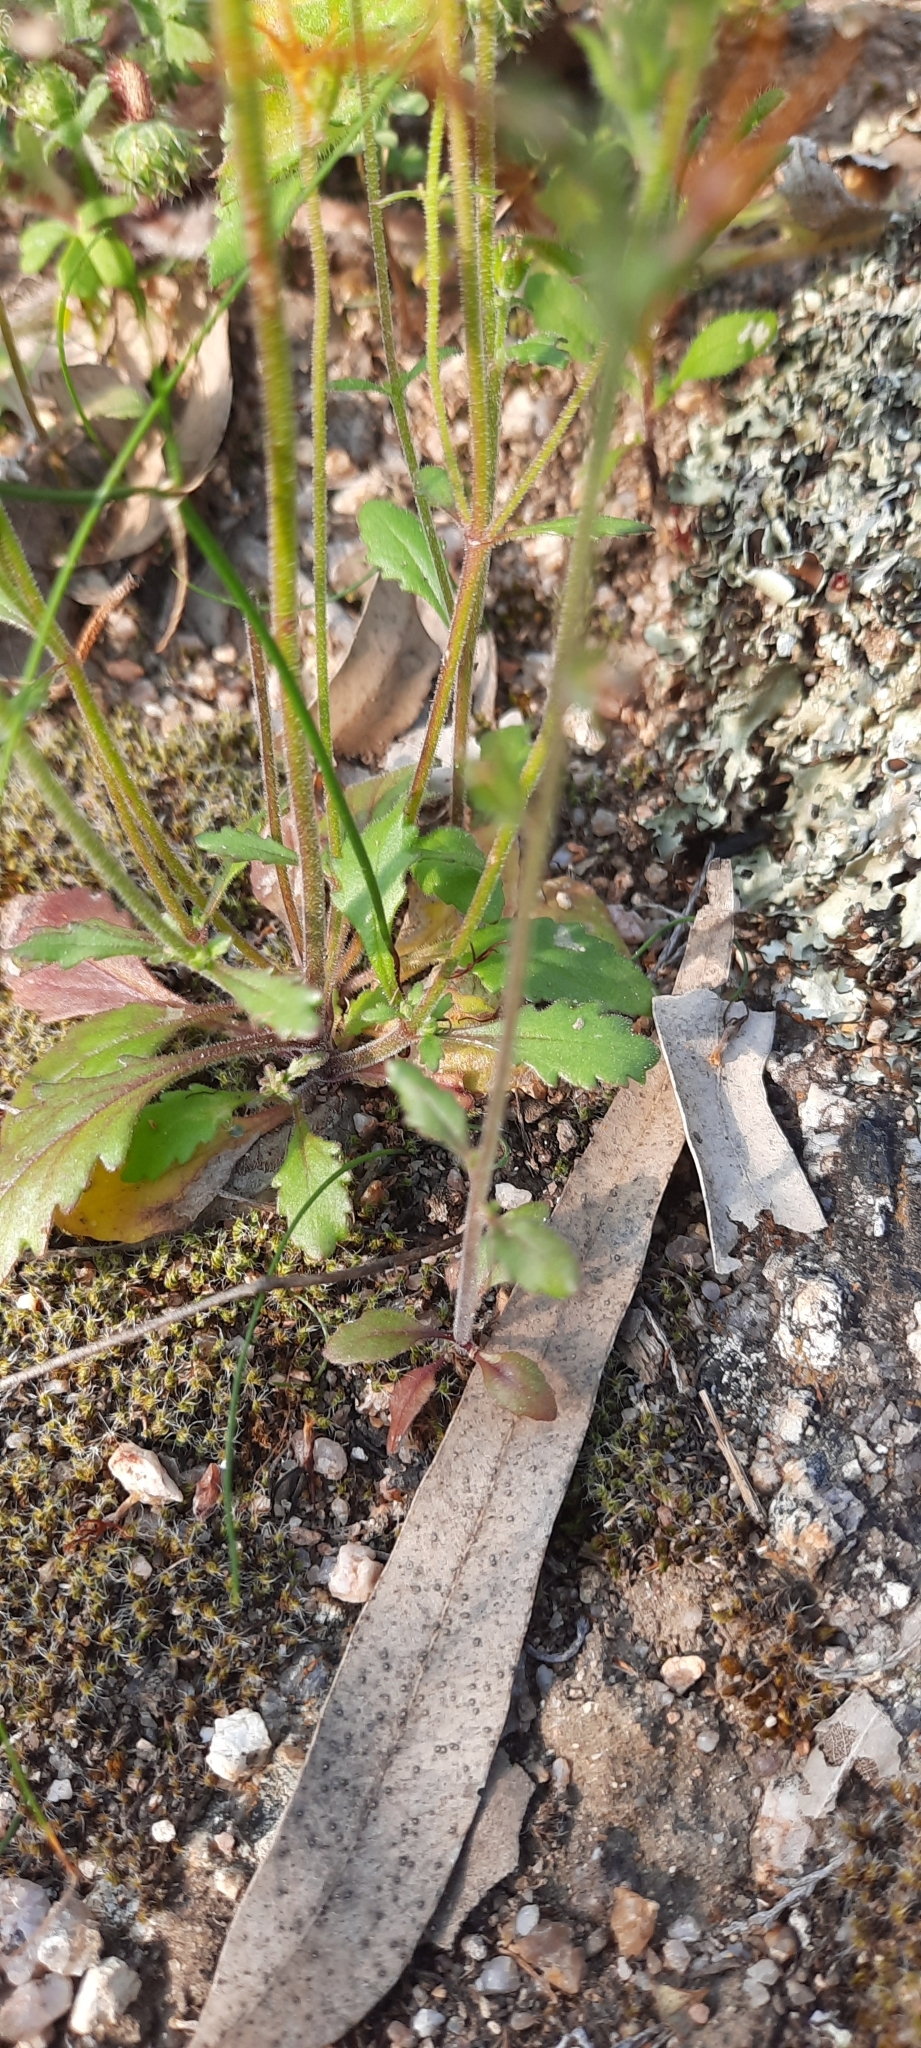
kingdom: Plantae
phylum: Tracheophyta
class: Magnoliopsida
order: Lamiales
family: Scrophulariaceae
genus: Manulea
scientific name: Manulea cheiranthus
